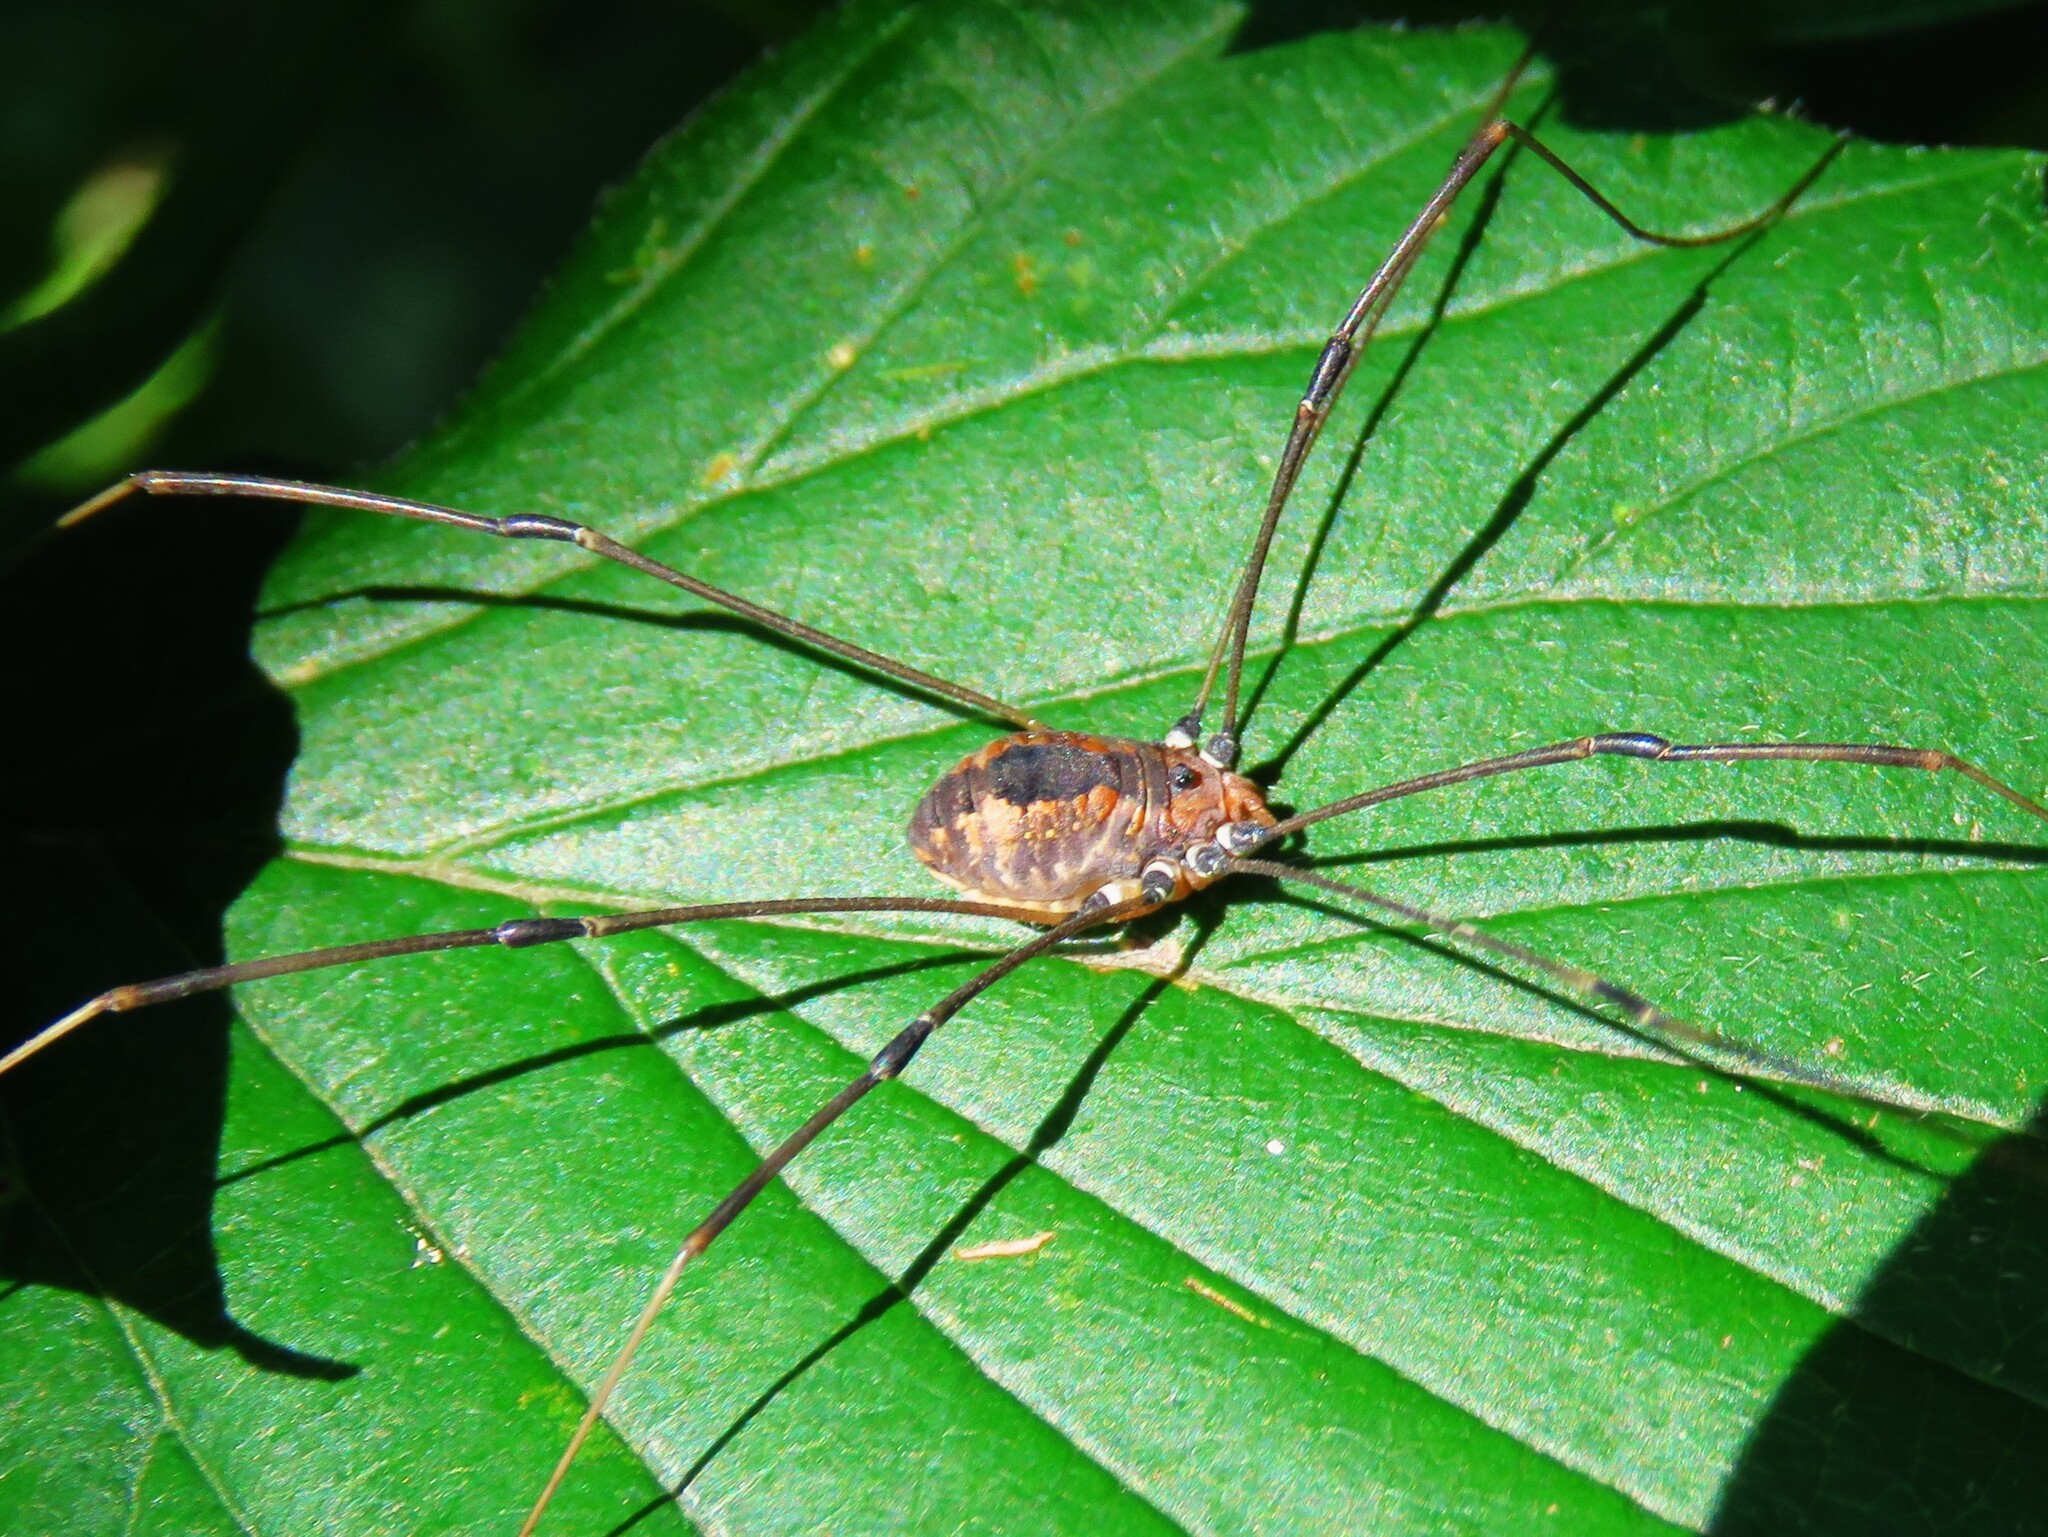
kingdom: Animalia
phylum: Arthropoda
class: Arachnida
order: Opiliones
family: Sclerosomatidae
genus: Leiobunum
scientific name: Leiobunum vittatum
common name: Eastern harvestman
